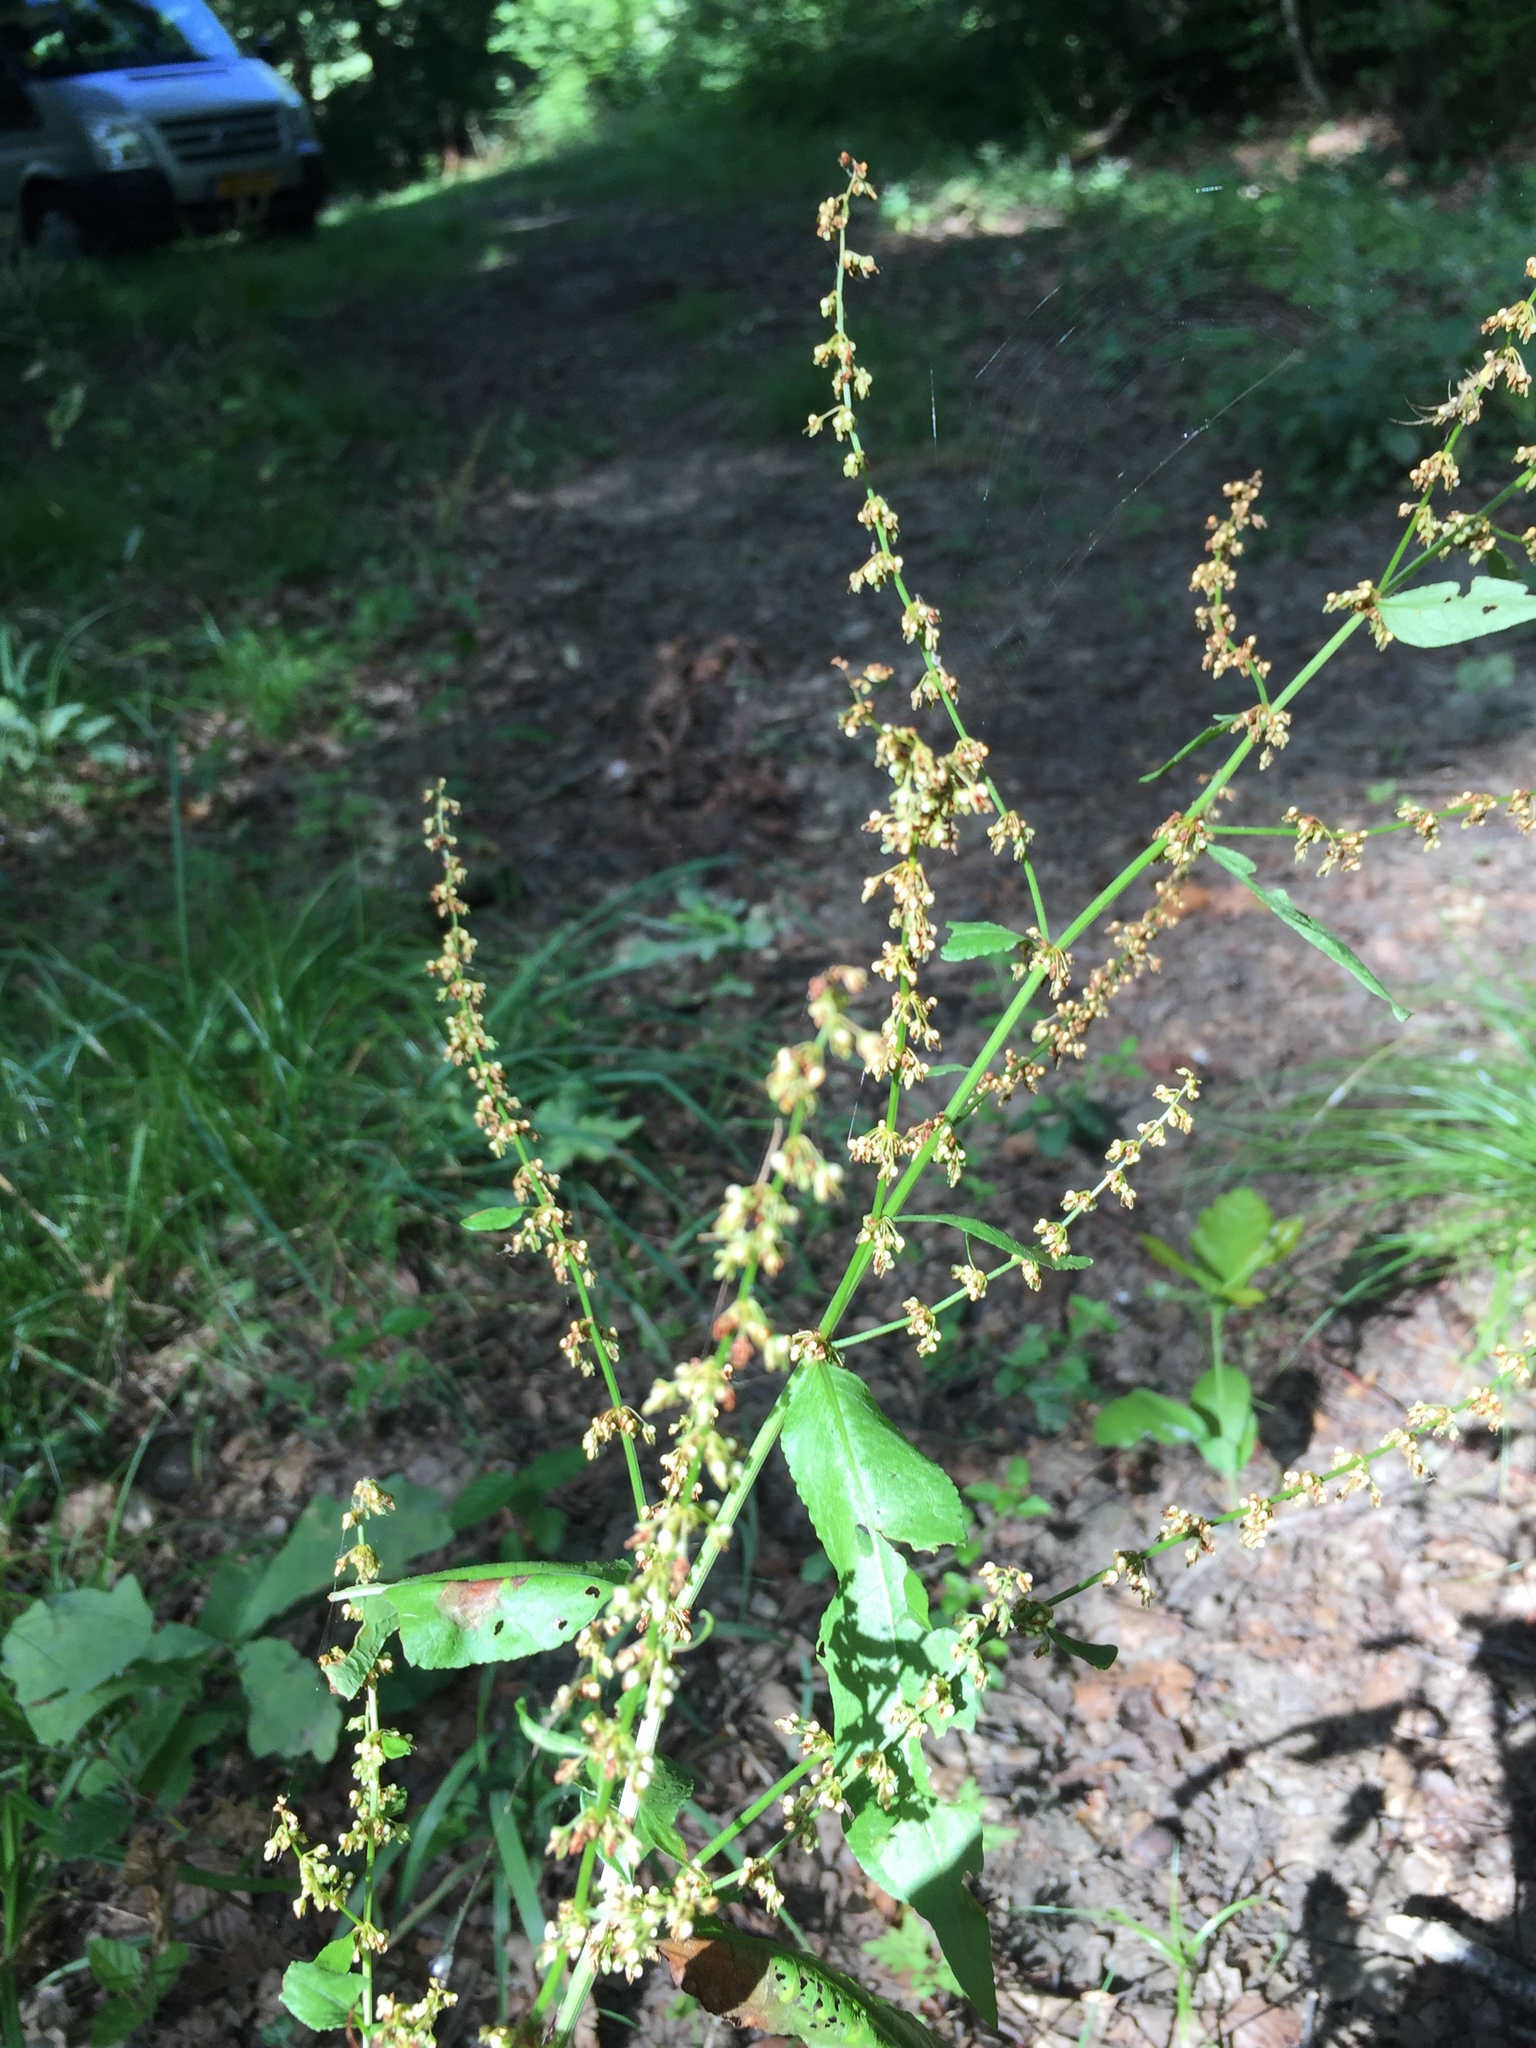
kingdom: Plantae
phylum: Tracheophyta
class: Magnoliopsida
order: Caryophyllales
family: Polygonaceae
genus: Rumex
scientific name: Rumex sanguineus
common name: Wood dock
